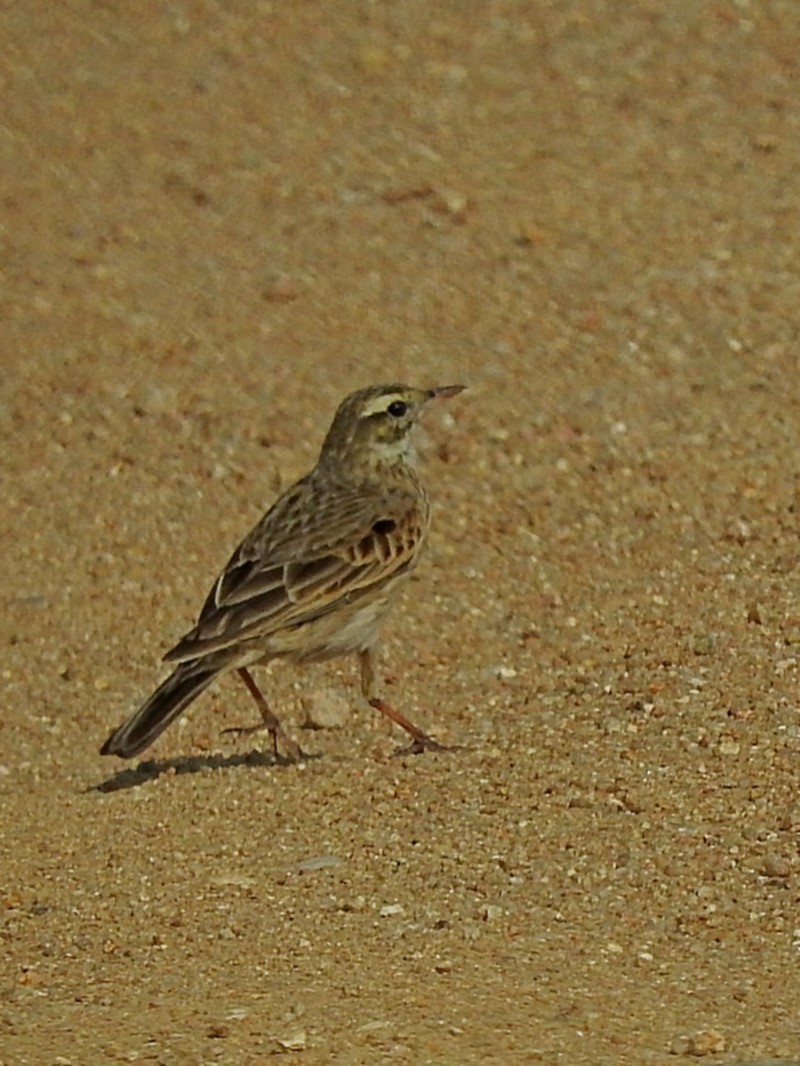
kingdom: Animalia
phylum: Chordata
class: Aves
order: Passeriformes
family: Motacillidae
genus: Anthus
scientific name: Anthus australis
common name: Australian pipit
